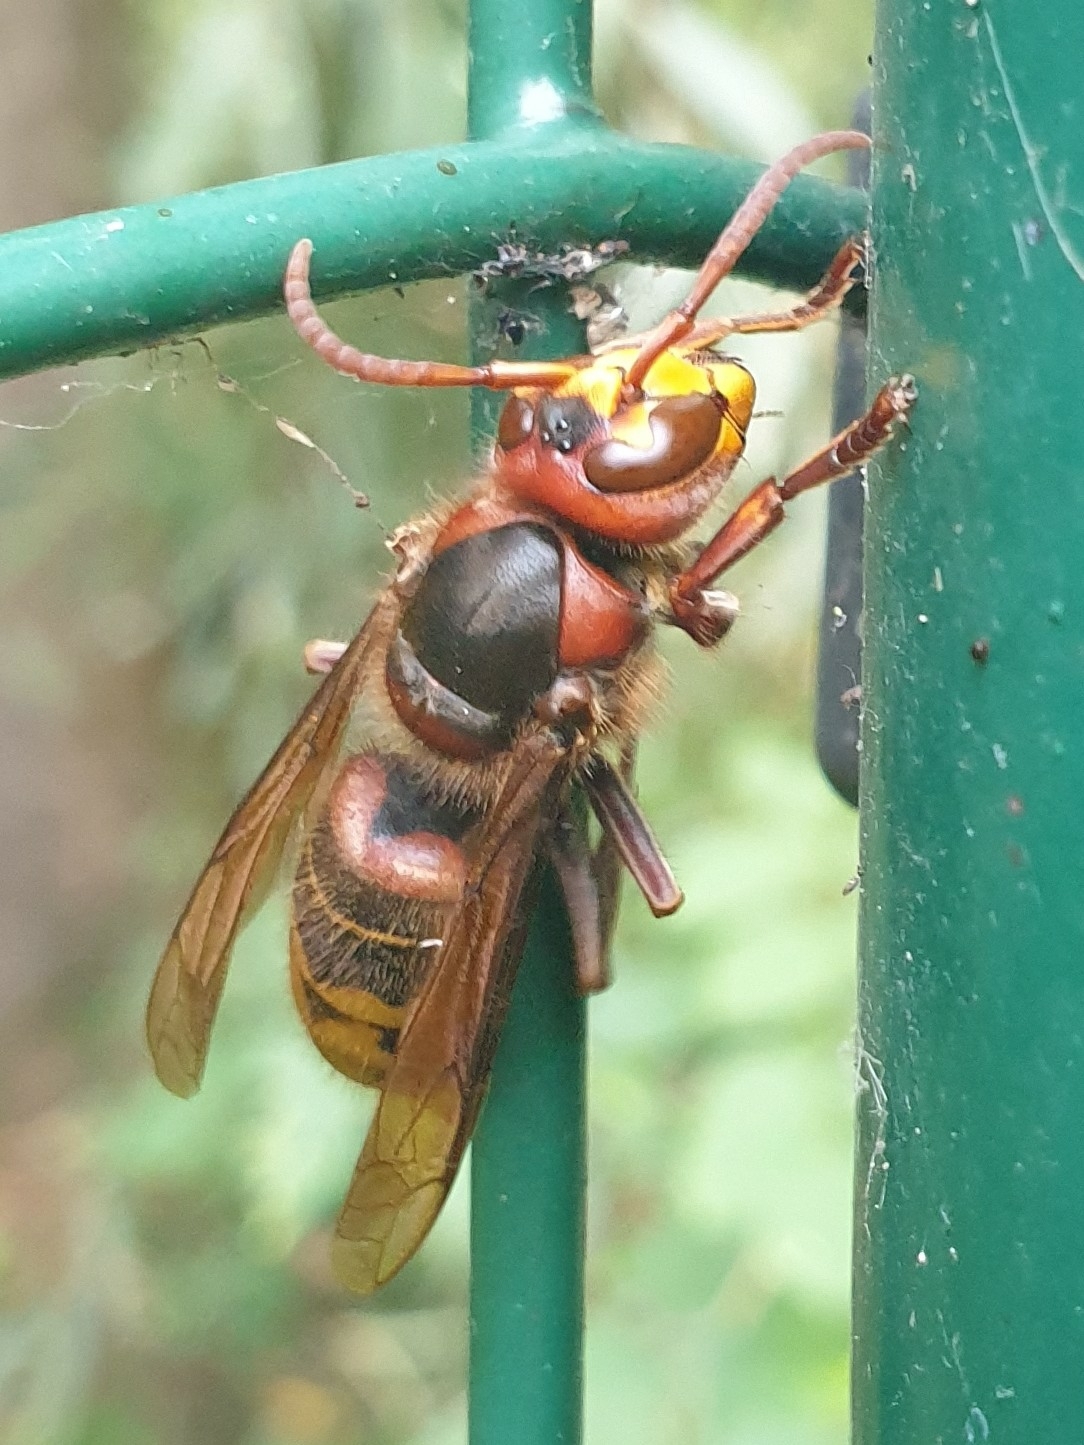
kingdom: Animalia
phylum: Arthropoda
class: Insecta
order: Hymenoptera
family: Vespidae
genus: Vespa
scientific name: Vespa crabro
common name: Hornet
